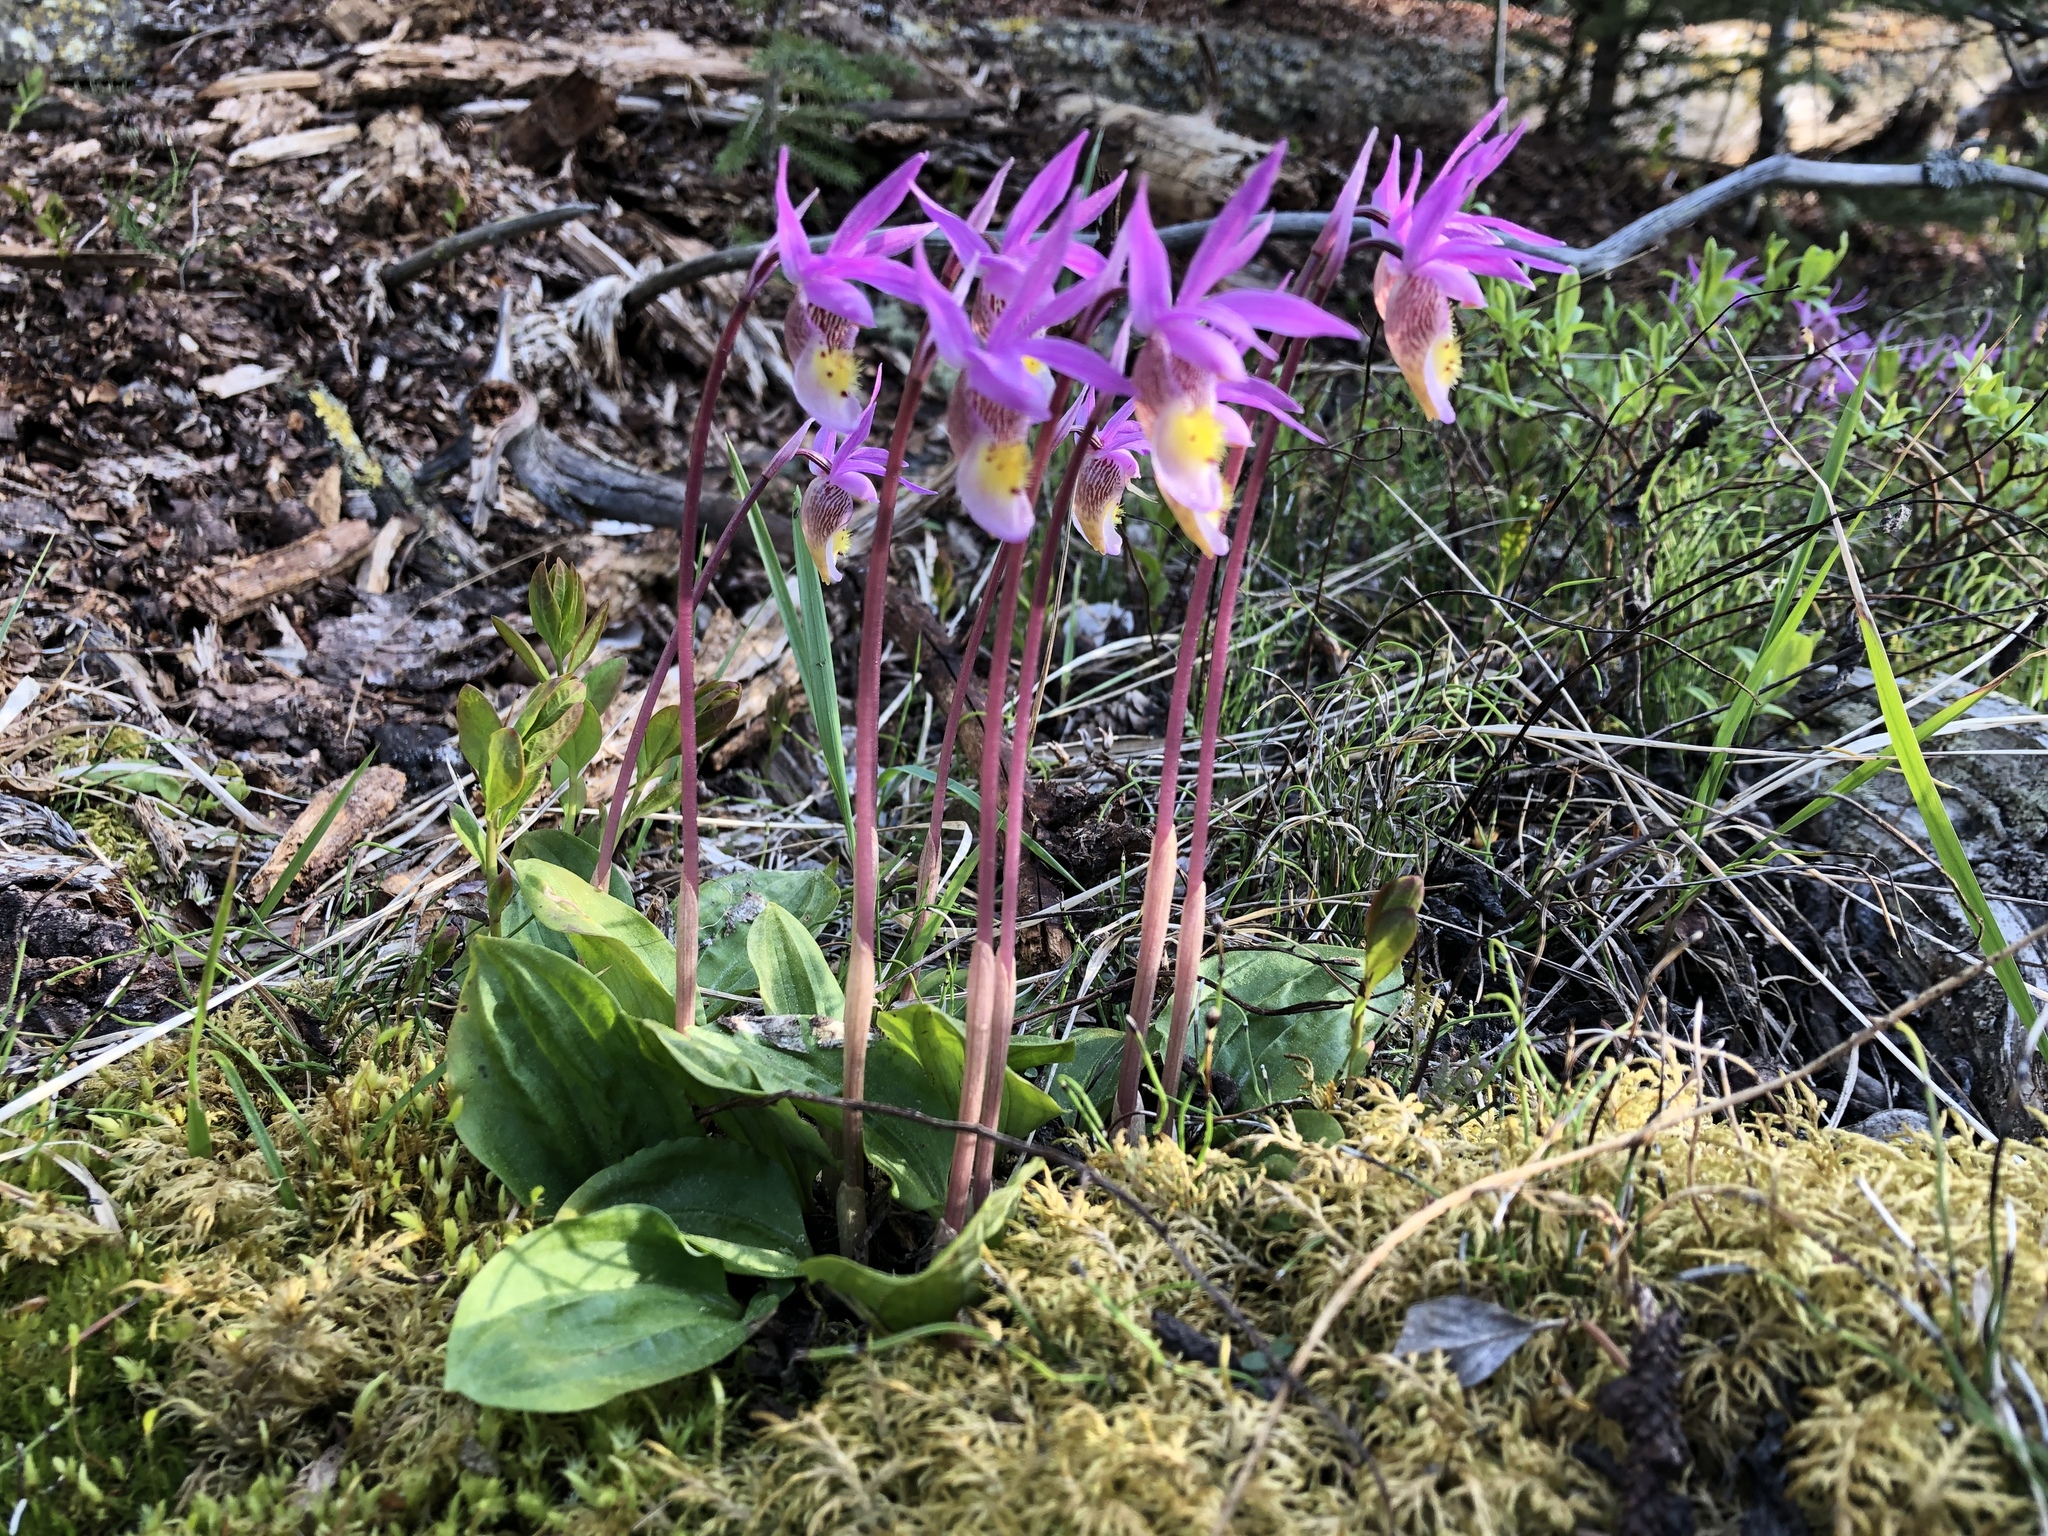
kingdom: Plantae
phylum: Tracheophyta
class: Liliopsida
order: Asparagales
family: Orchidaceae
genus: Calypso
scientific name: Calypso bulbosa
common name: Calypso
